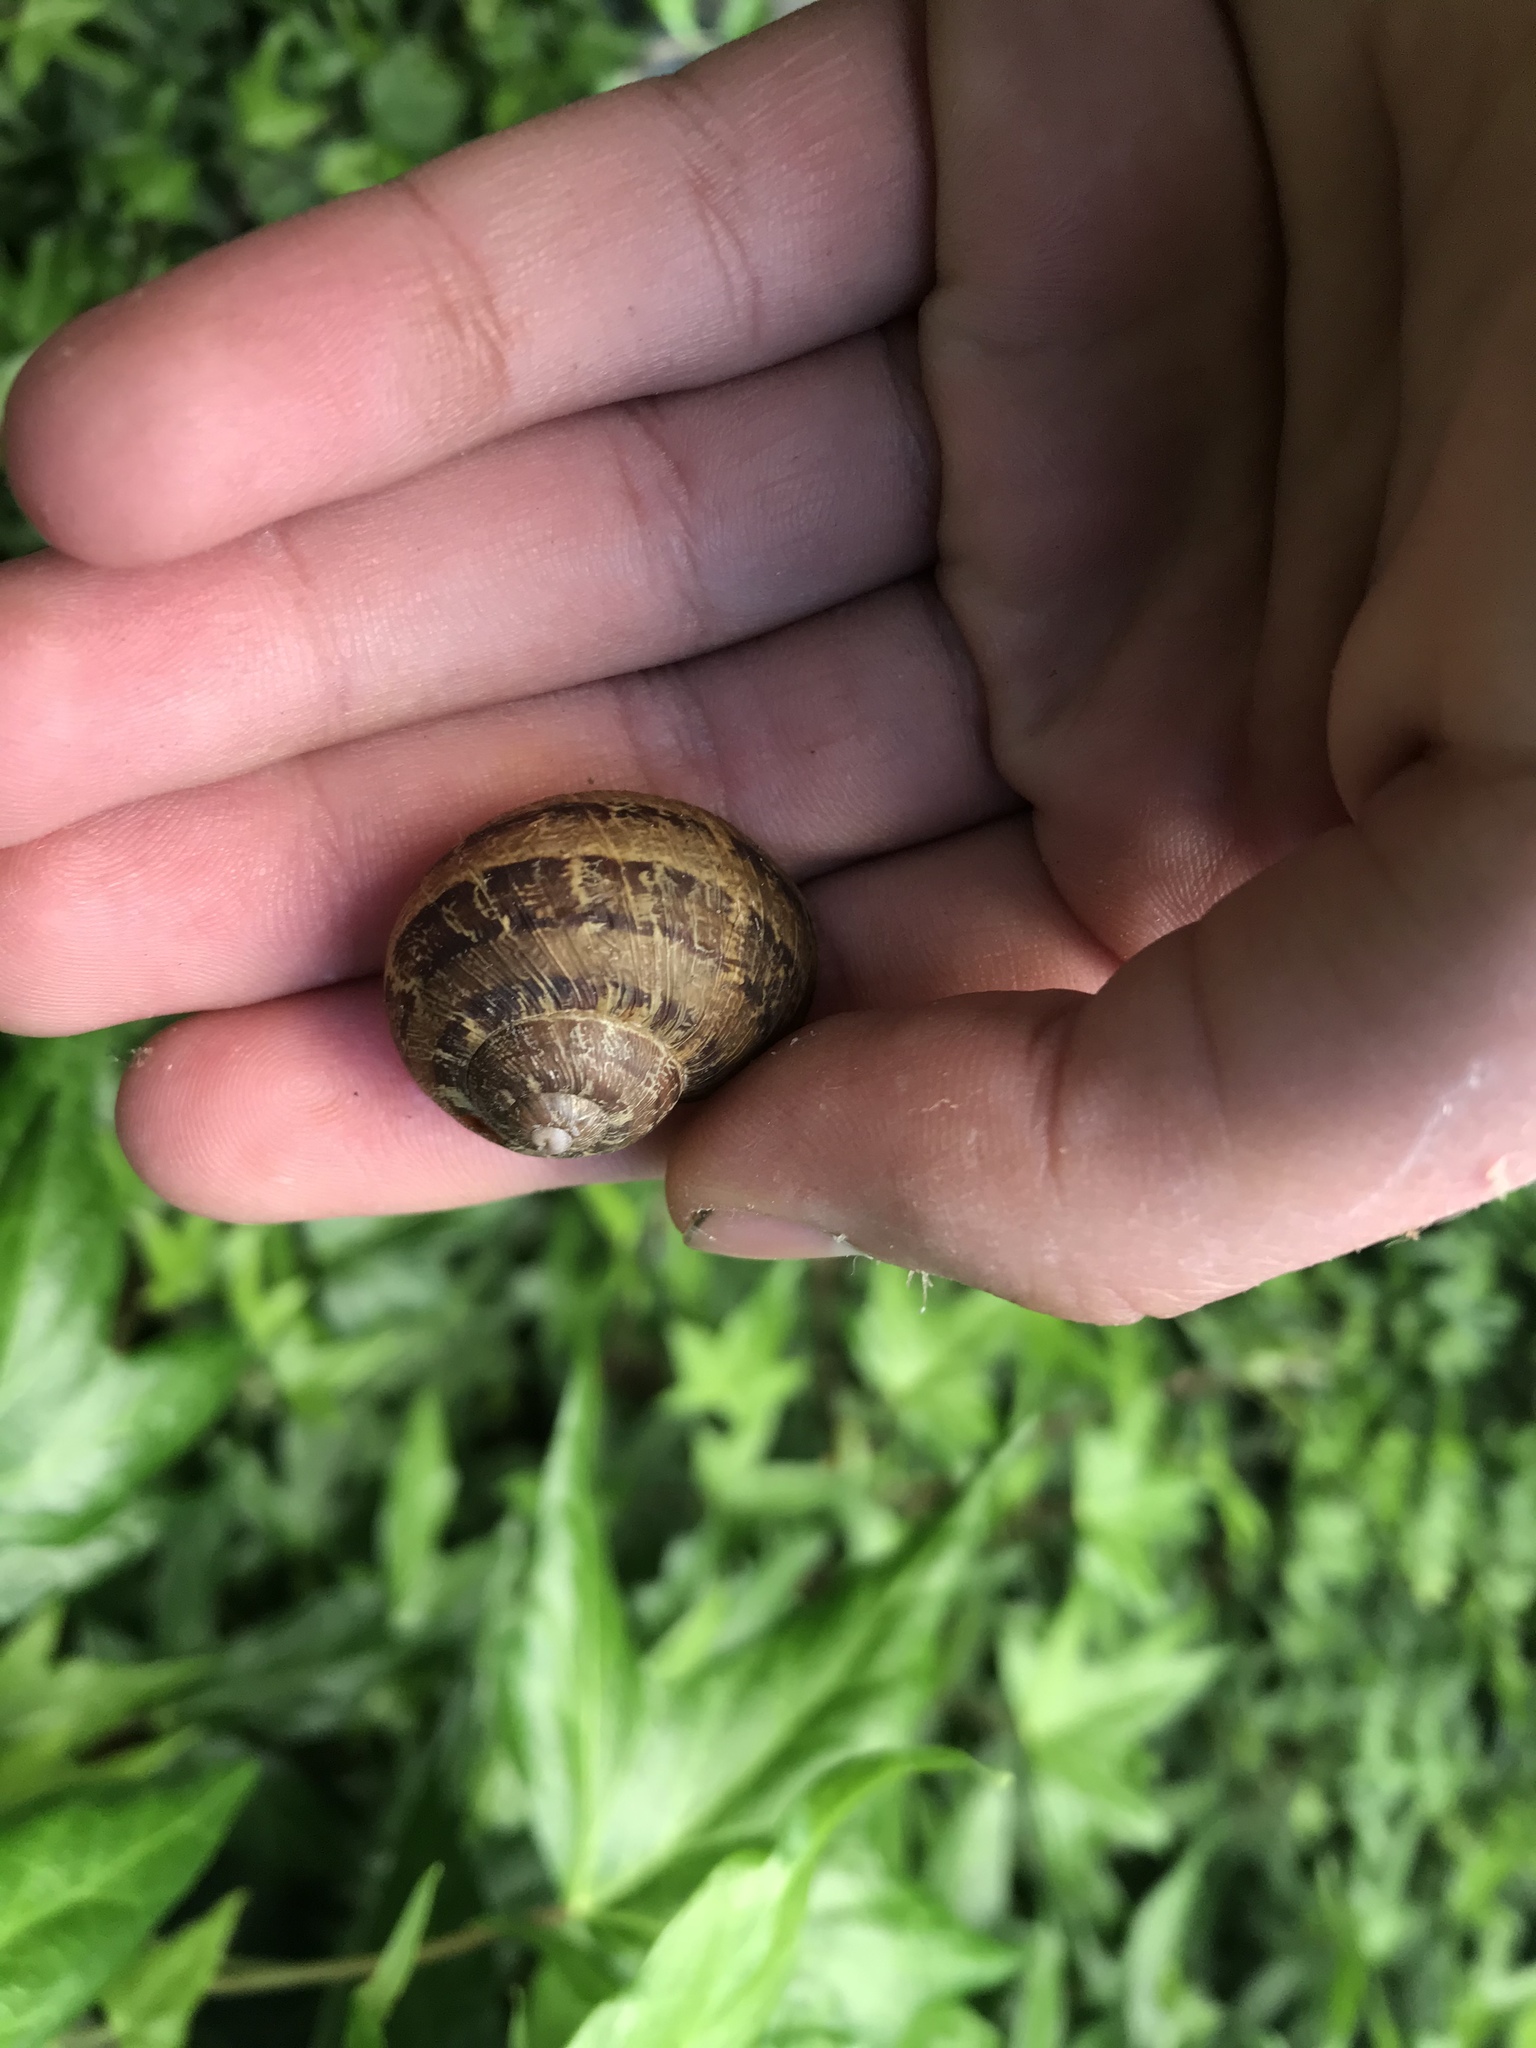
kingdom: Animalia
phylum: Mollusca
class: Gastropoda
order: Stylommatophora
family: Helicidae
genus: Cornu
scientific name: Cornu aspersum
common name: Brown garden snail
